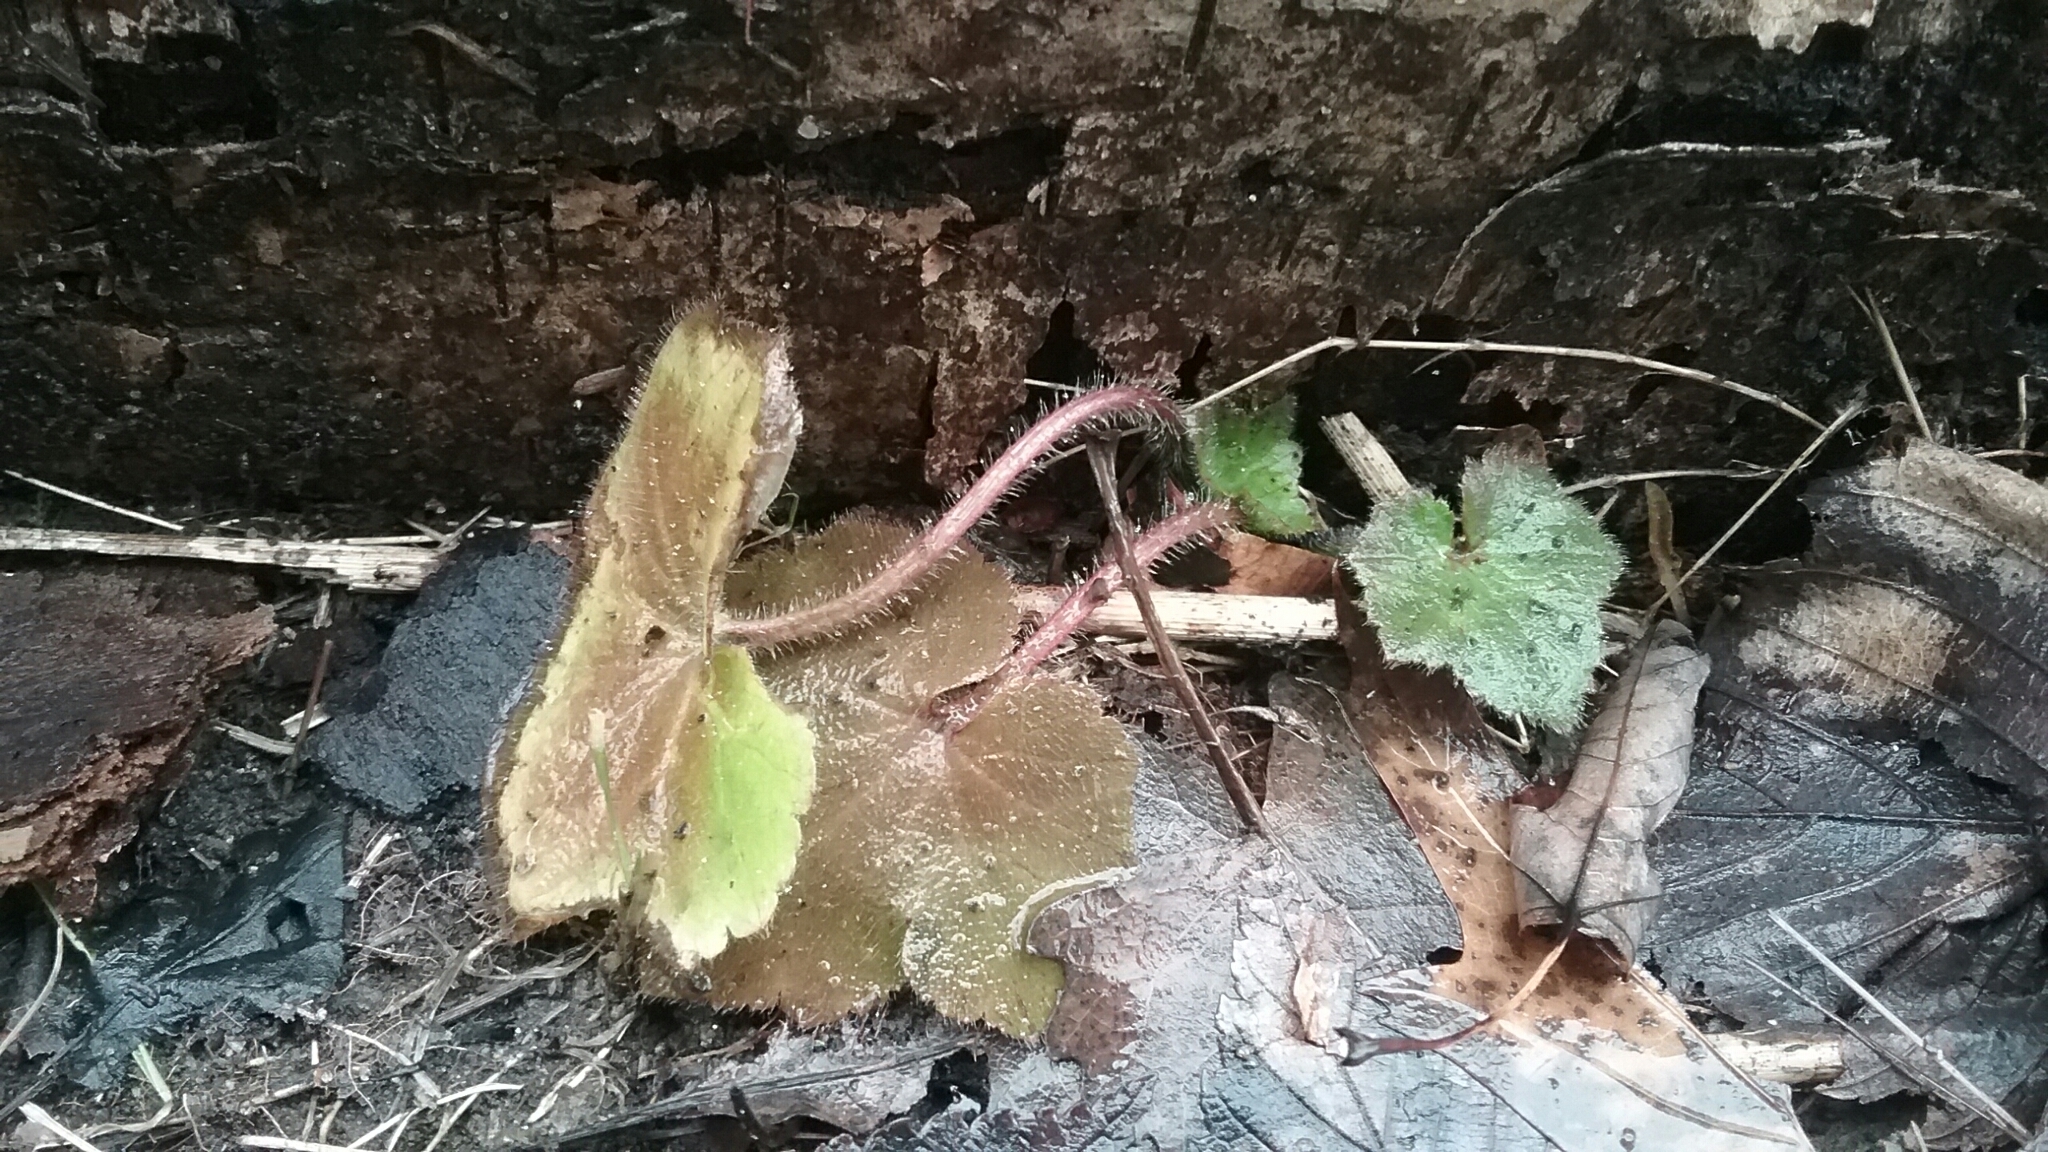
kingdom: Plantae
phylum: Tracheophyta
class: Magnoliopsida
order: Saxifragales
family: Saxifragaceae
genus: Tiarella
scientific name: Tiarella stolonifera
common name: Stoloniferous foamflower
